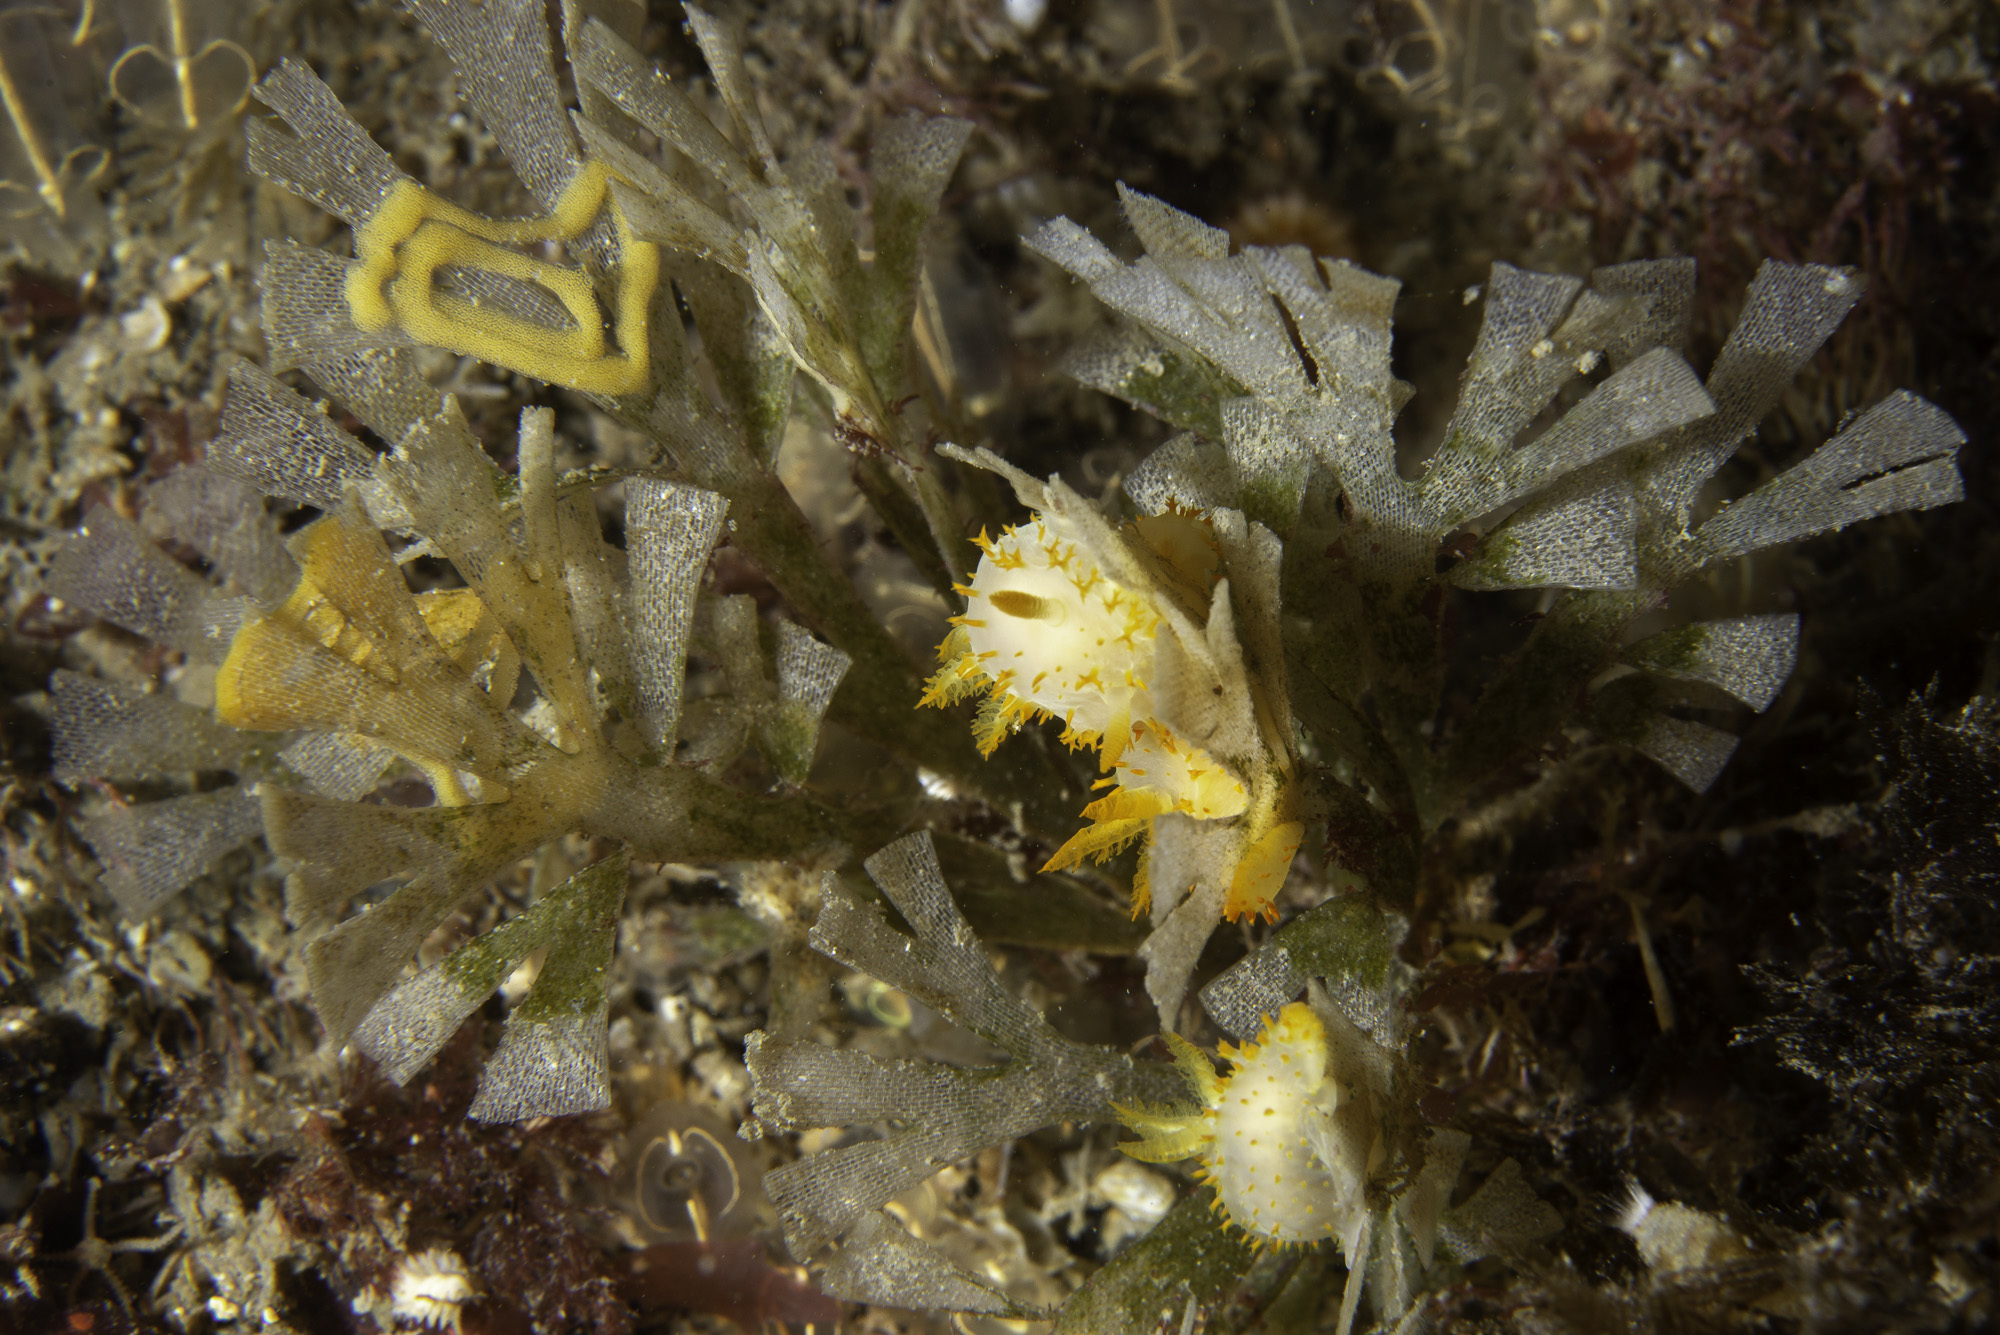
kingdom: Animalia
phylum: Mollusca
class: Gastropoda
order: Nudibranchia
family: Polyceridae
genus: Crimora
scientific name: Crimora papillata
